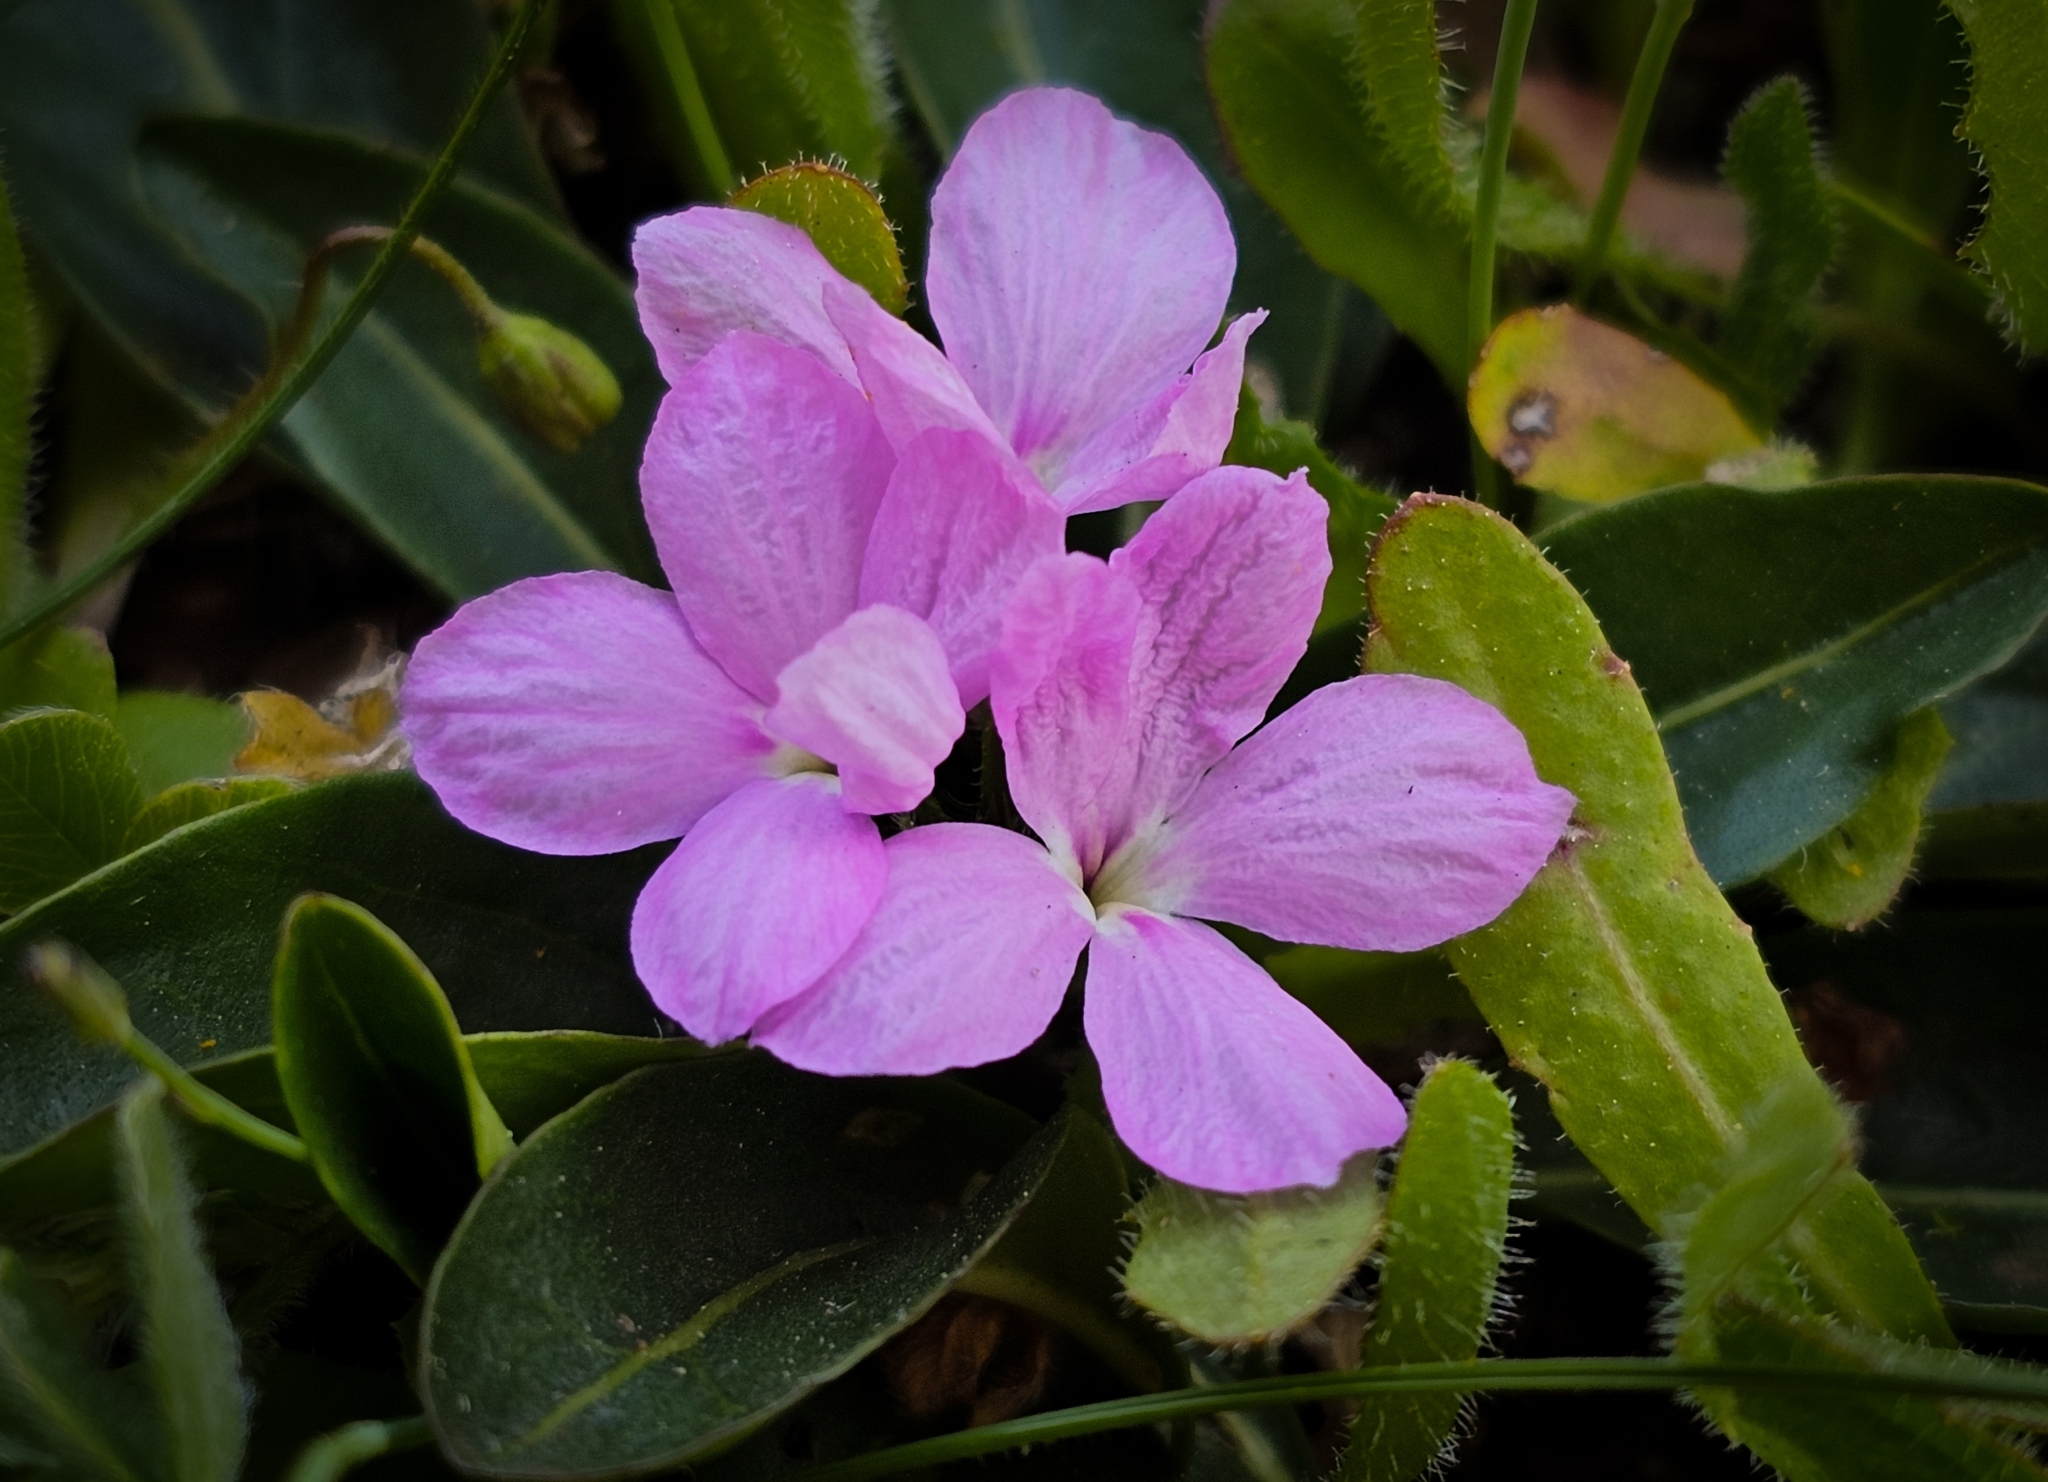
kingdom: Plantae
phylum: Tracheophyta
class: Magnoliopsida
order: Lamiales
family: Acanthaceae
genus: Stenandrium
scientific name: Stenandrium dulce
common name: Pinklet
